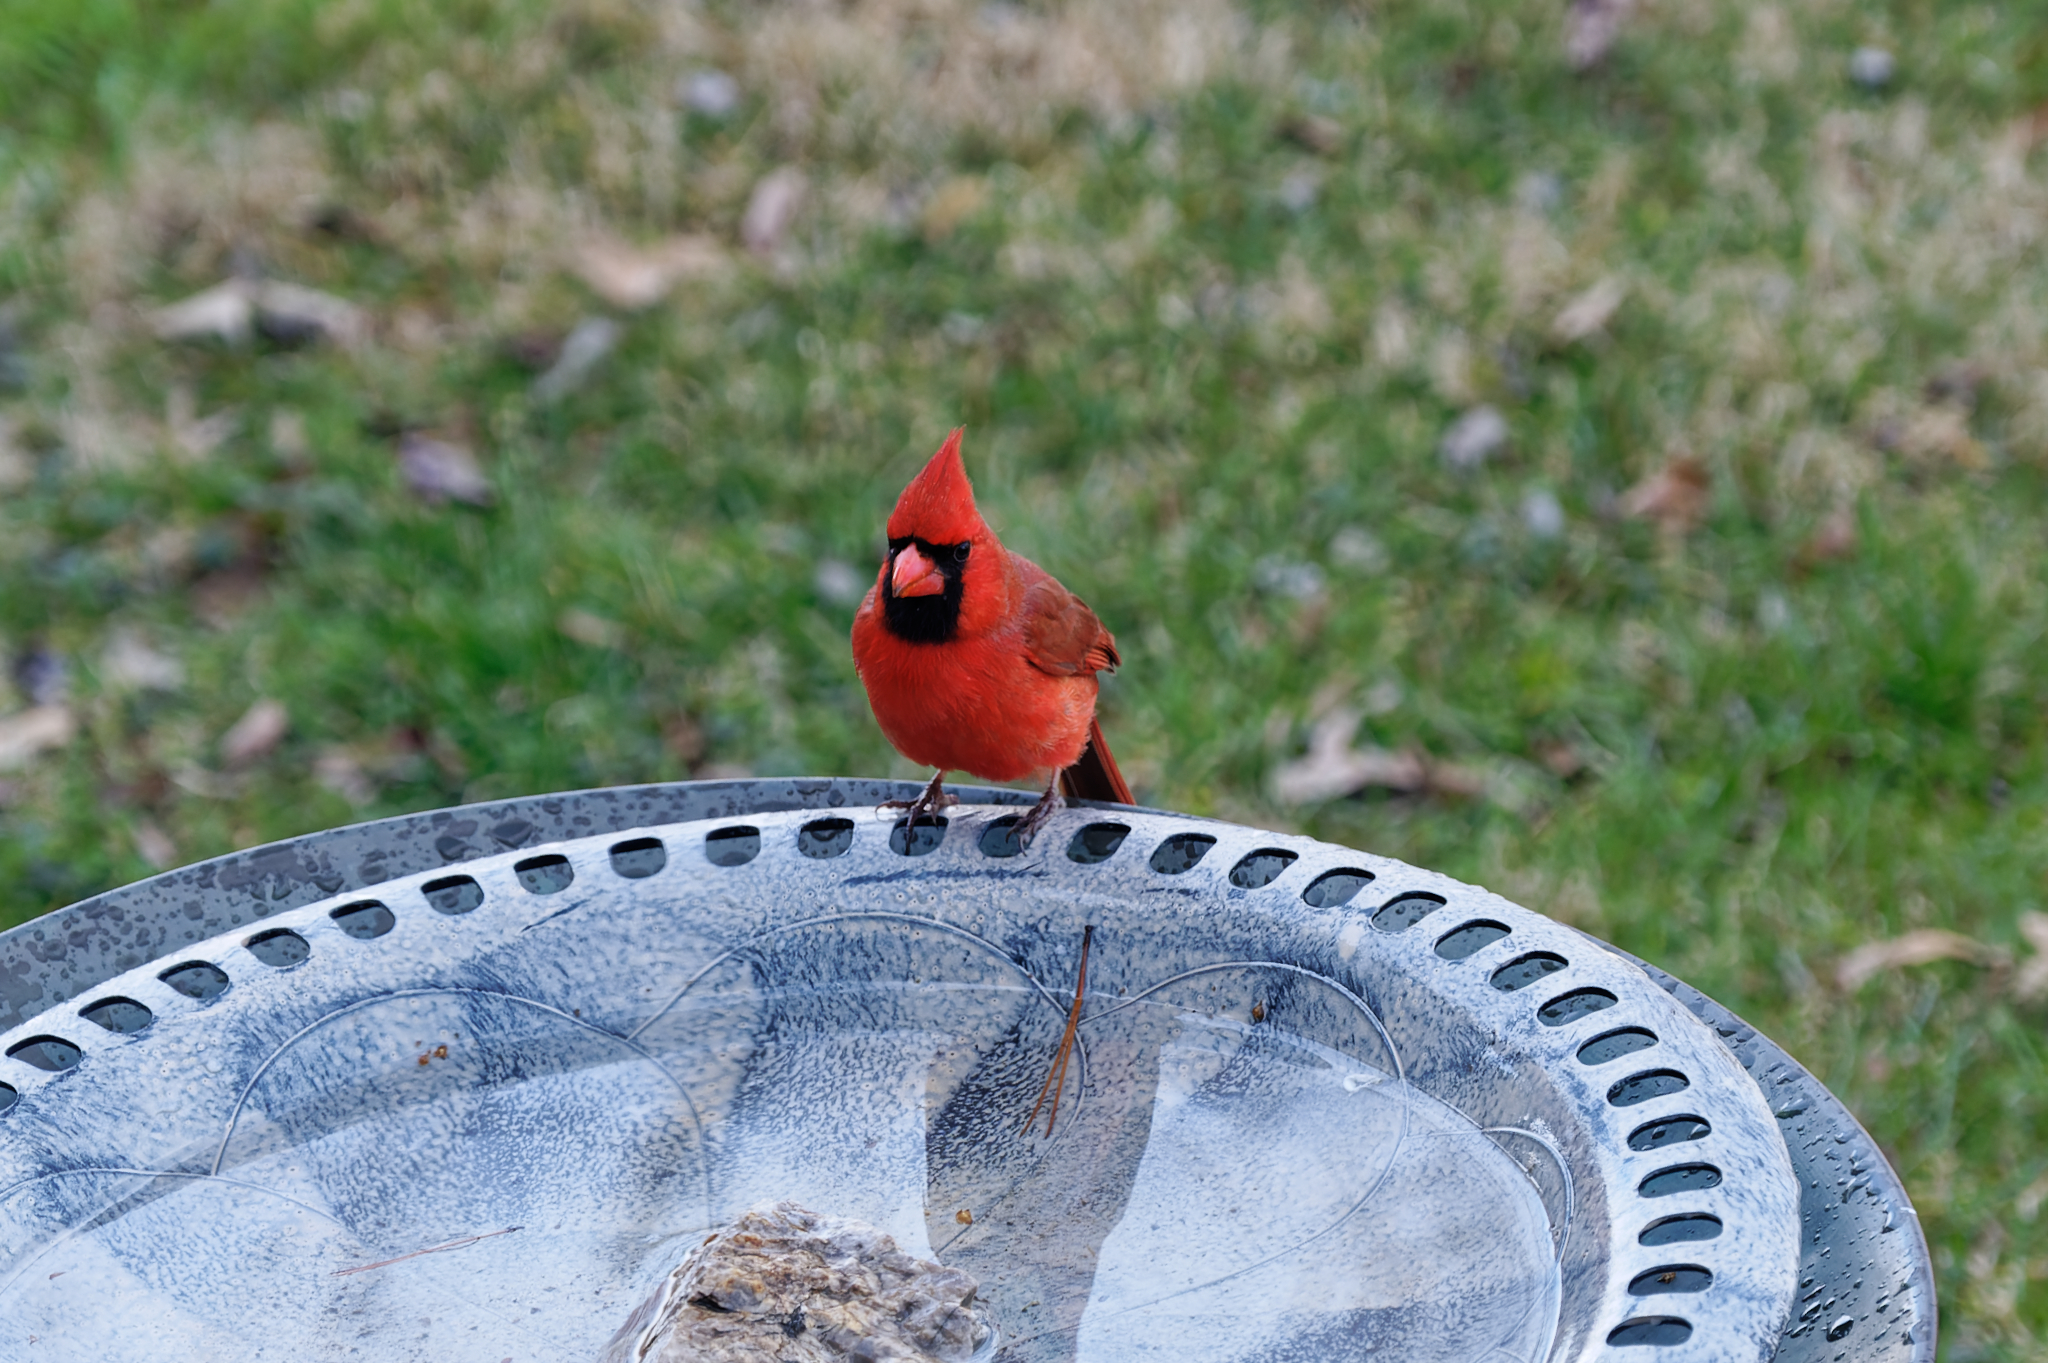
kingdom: Animalia
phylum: Chordata
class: Aves
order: Passeriformes
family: Cardinalidae
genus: Cardinalis
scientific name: Cardinalis cardinalis
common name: Northern cardinal
